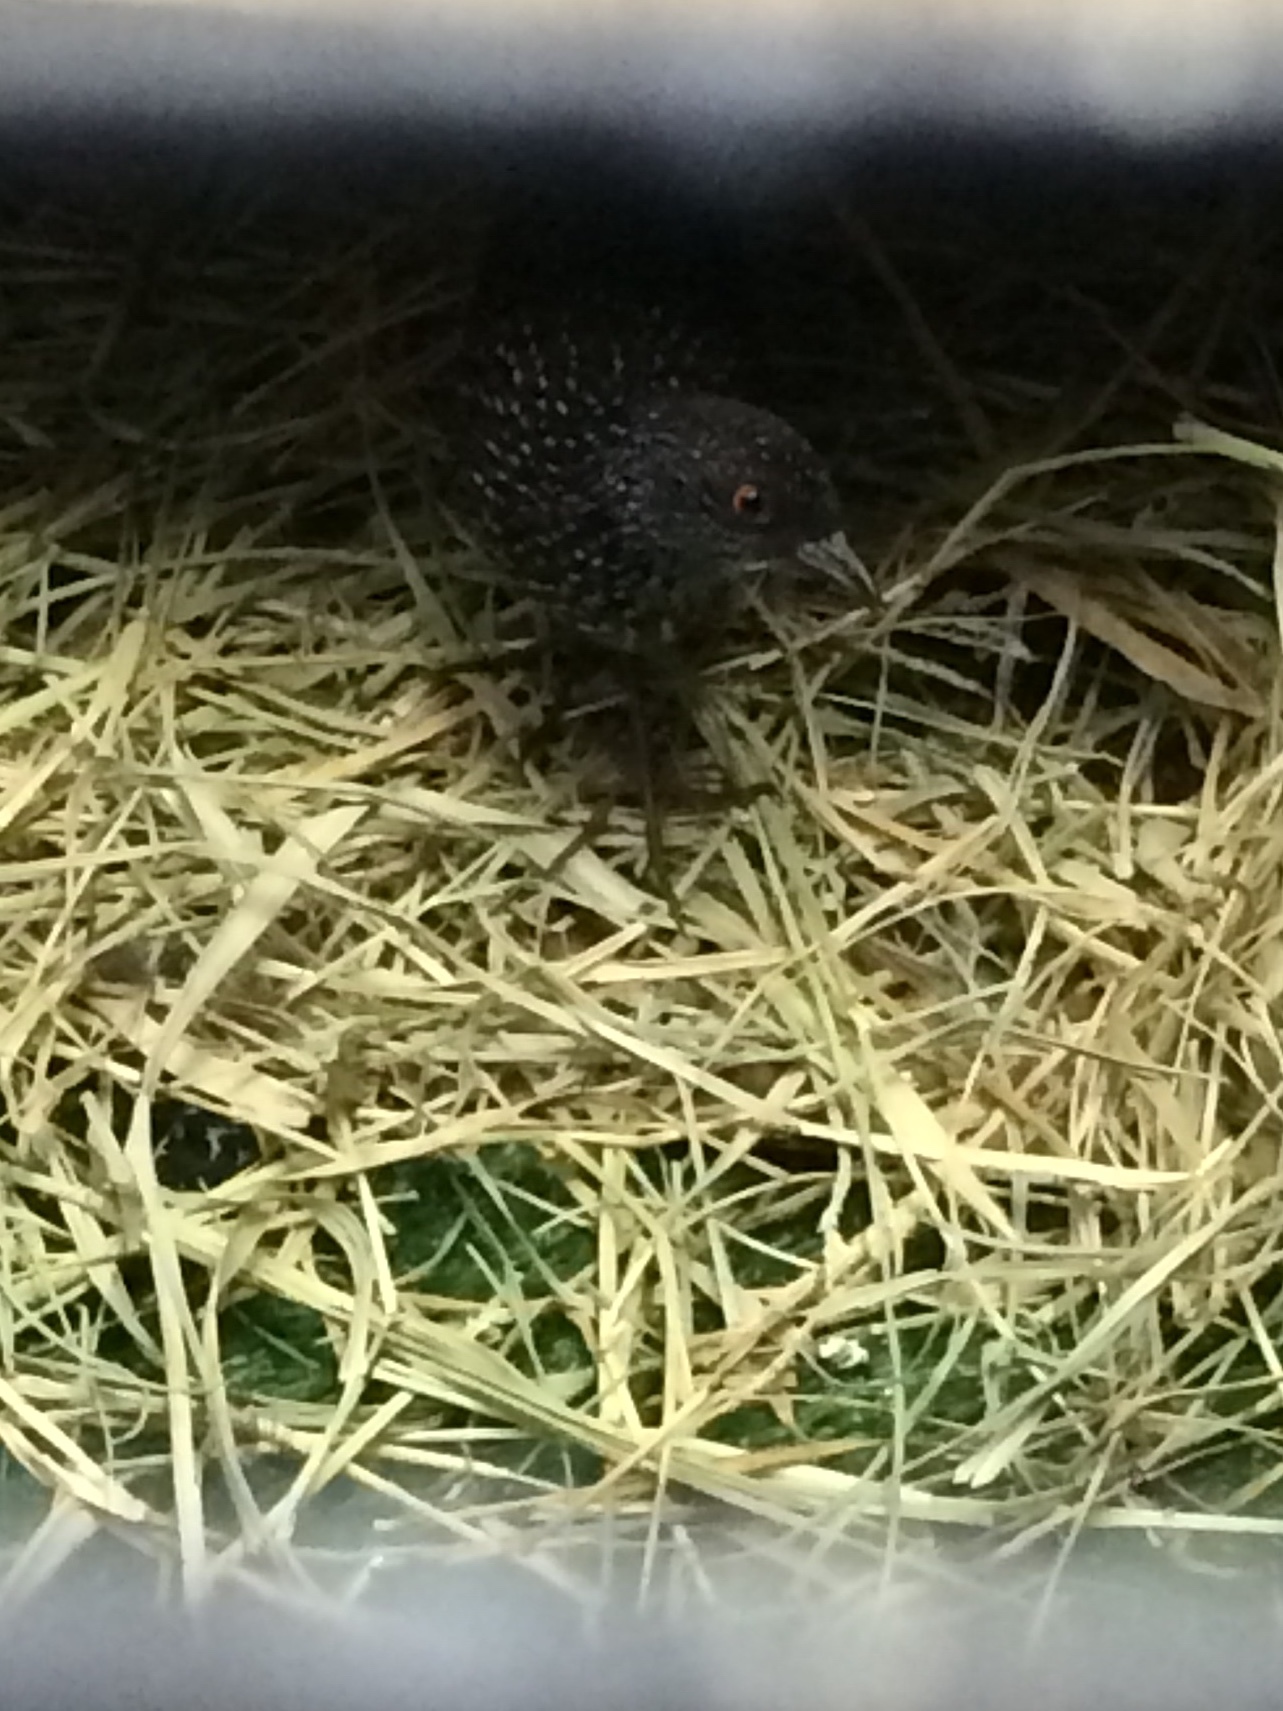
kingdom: Animalia
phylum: Chordata
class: Aves
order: Gruiformes
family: Rallidae
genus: Coturnicops
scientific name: Coturnicops notatus
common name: Speckled rail
